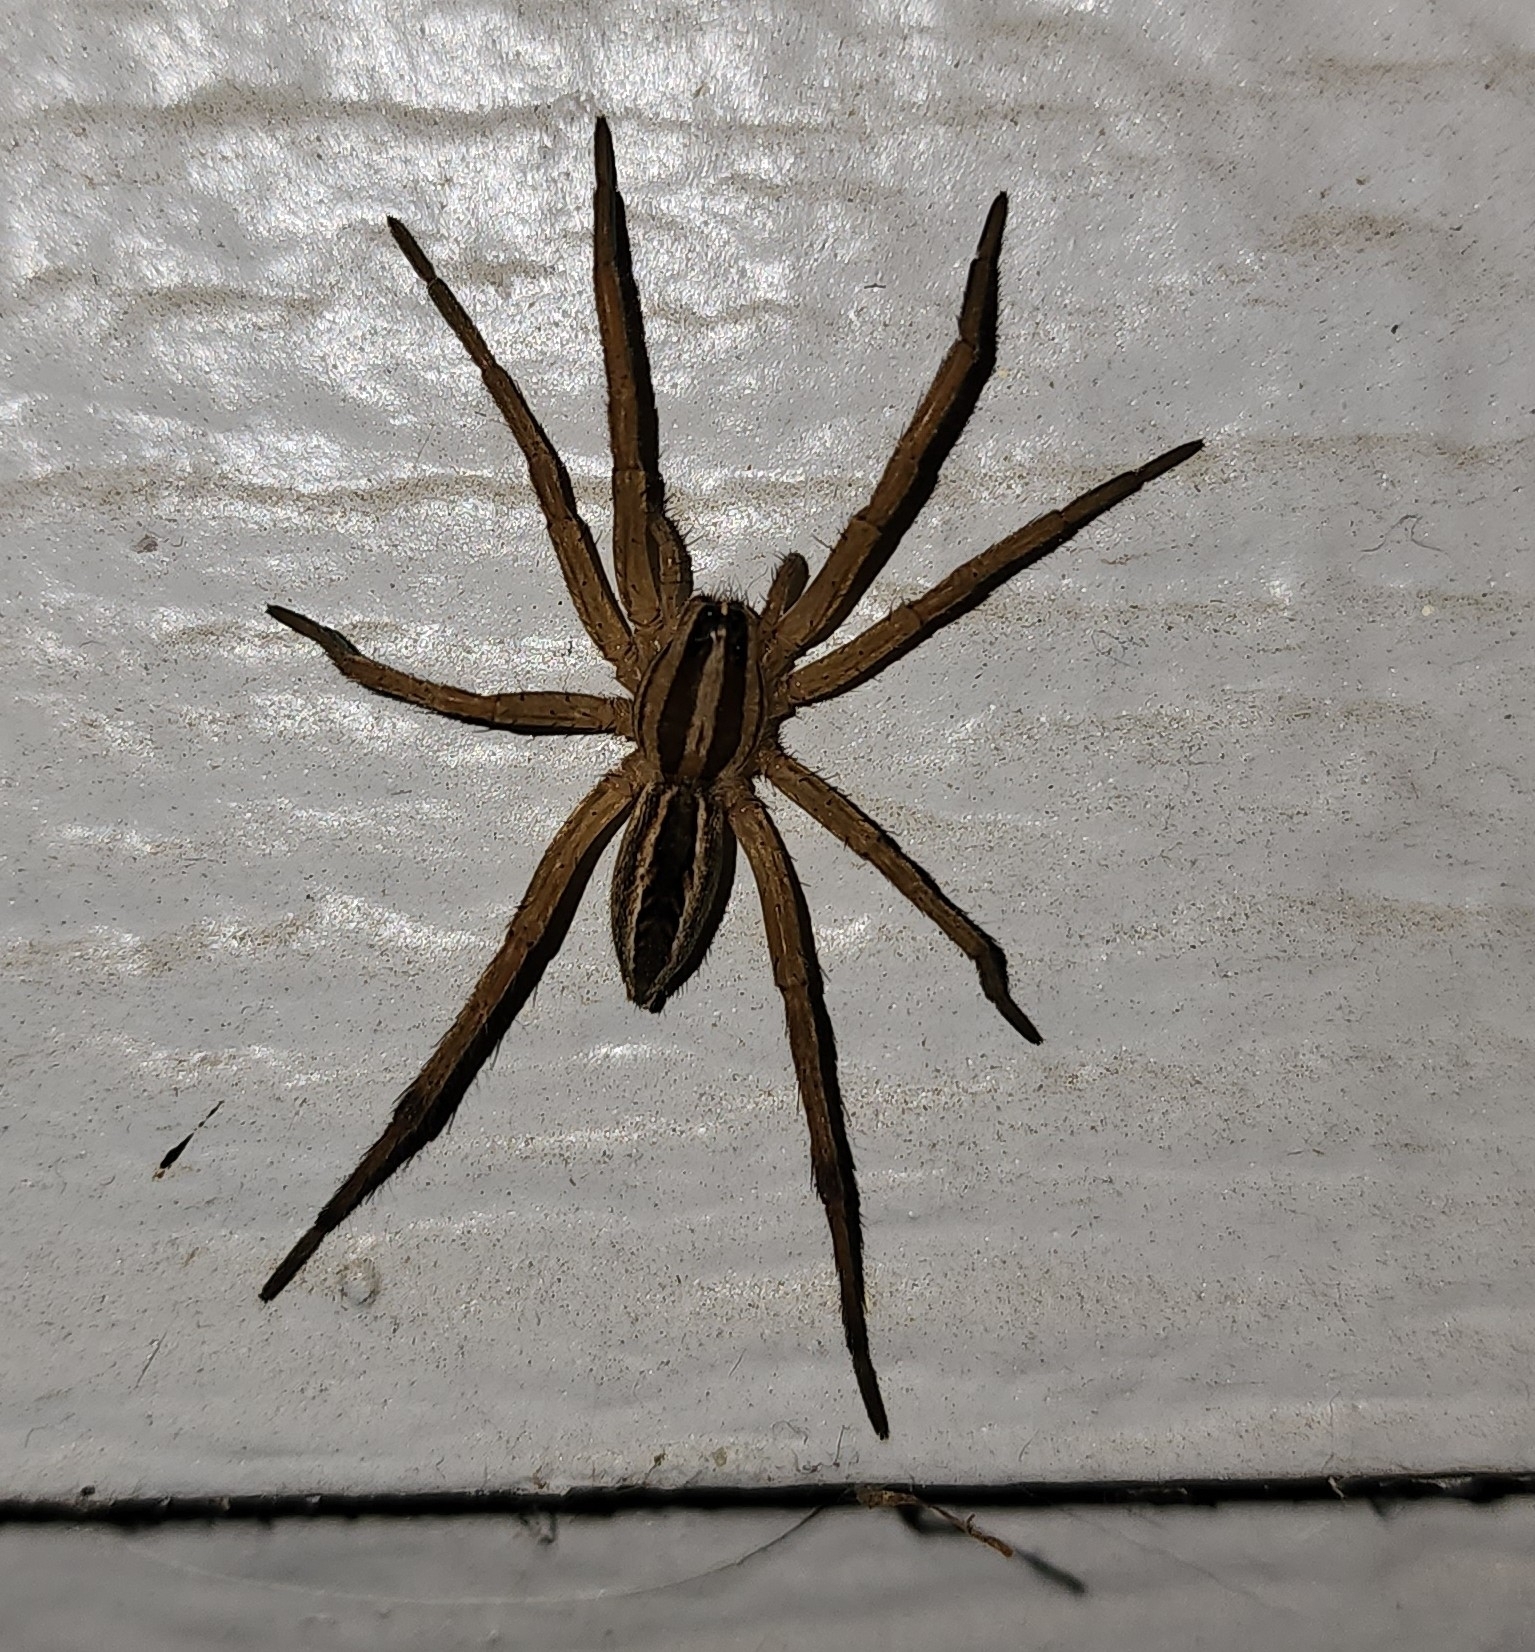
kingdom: Animalia
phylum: Arthropoda
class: Arachnida
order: Araneae
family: Lycosidae
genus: Rabidosa
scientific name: Rabidosa rabida
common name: Rabid wolf spider
